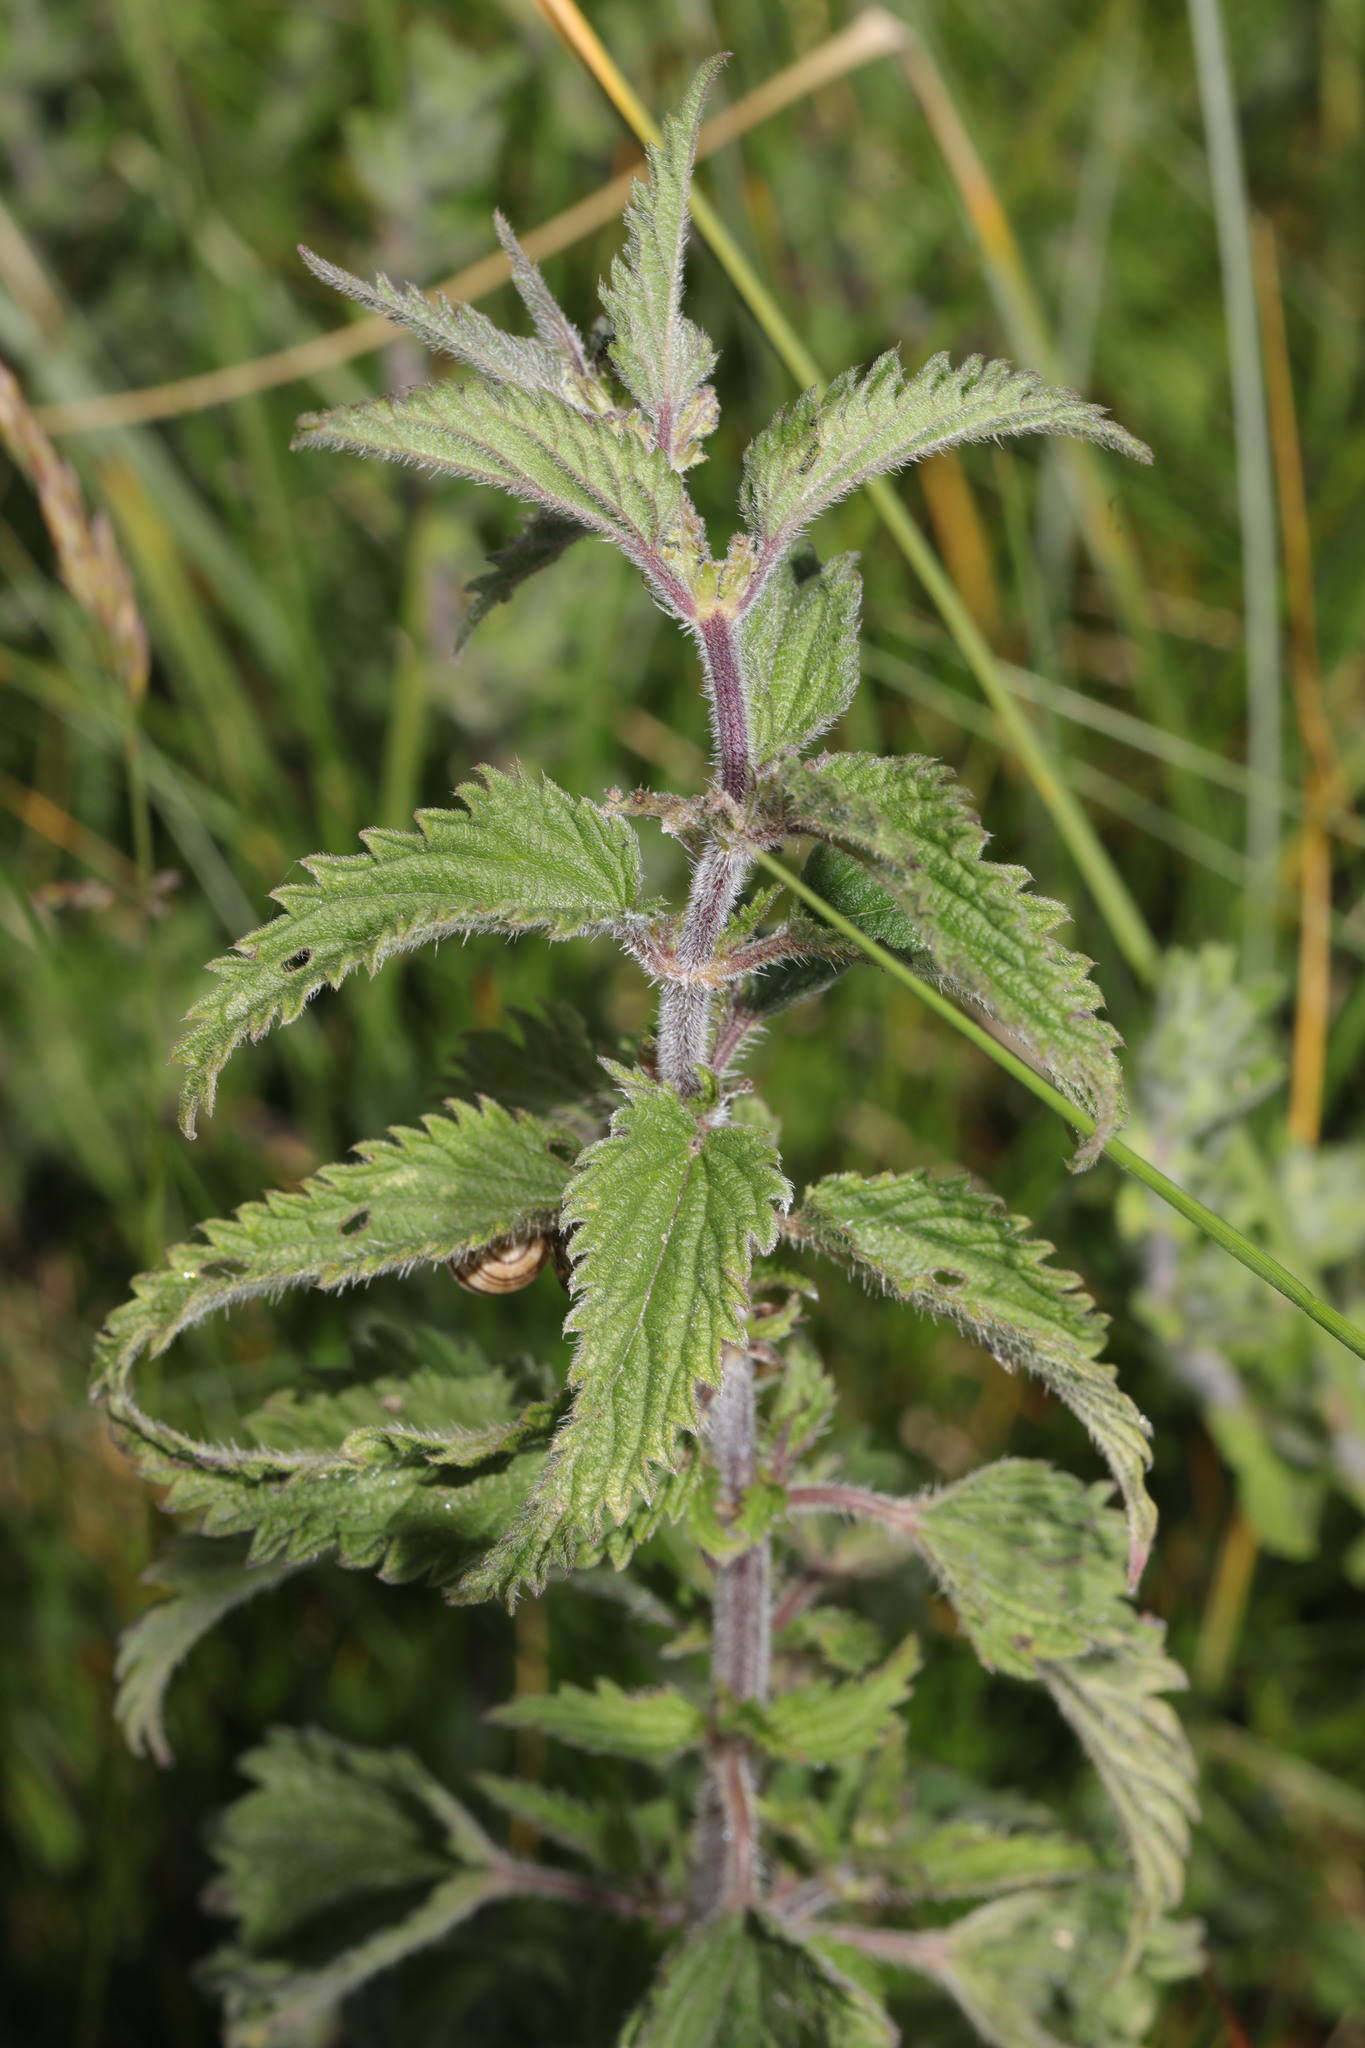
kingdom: Plantae
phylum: Tracheophyta
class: Magnoliopsida
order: Rosales
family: Urticaceae
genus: Urtica
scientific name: Urtica dioica
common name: Common nettle
